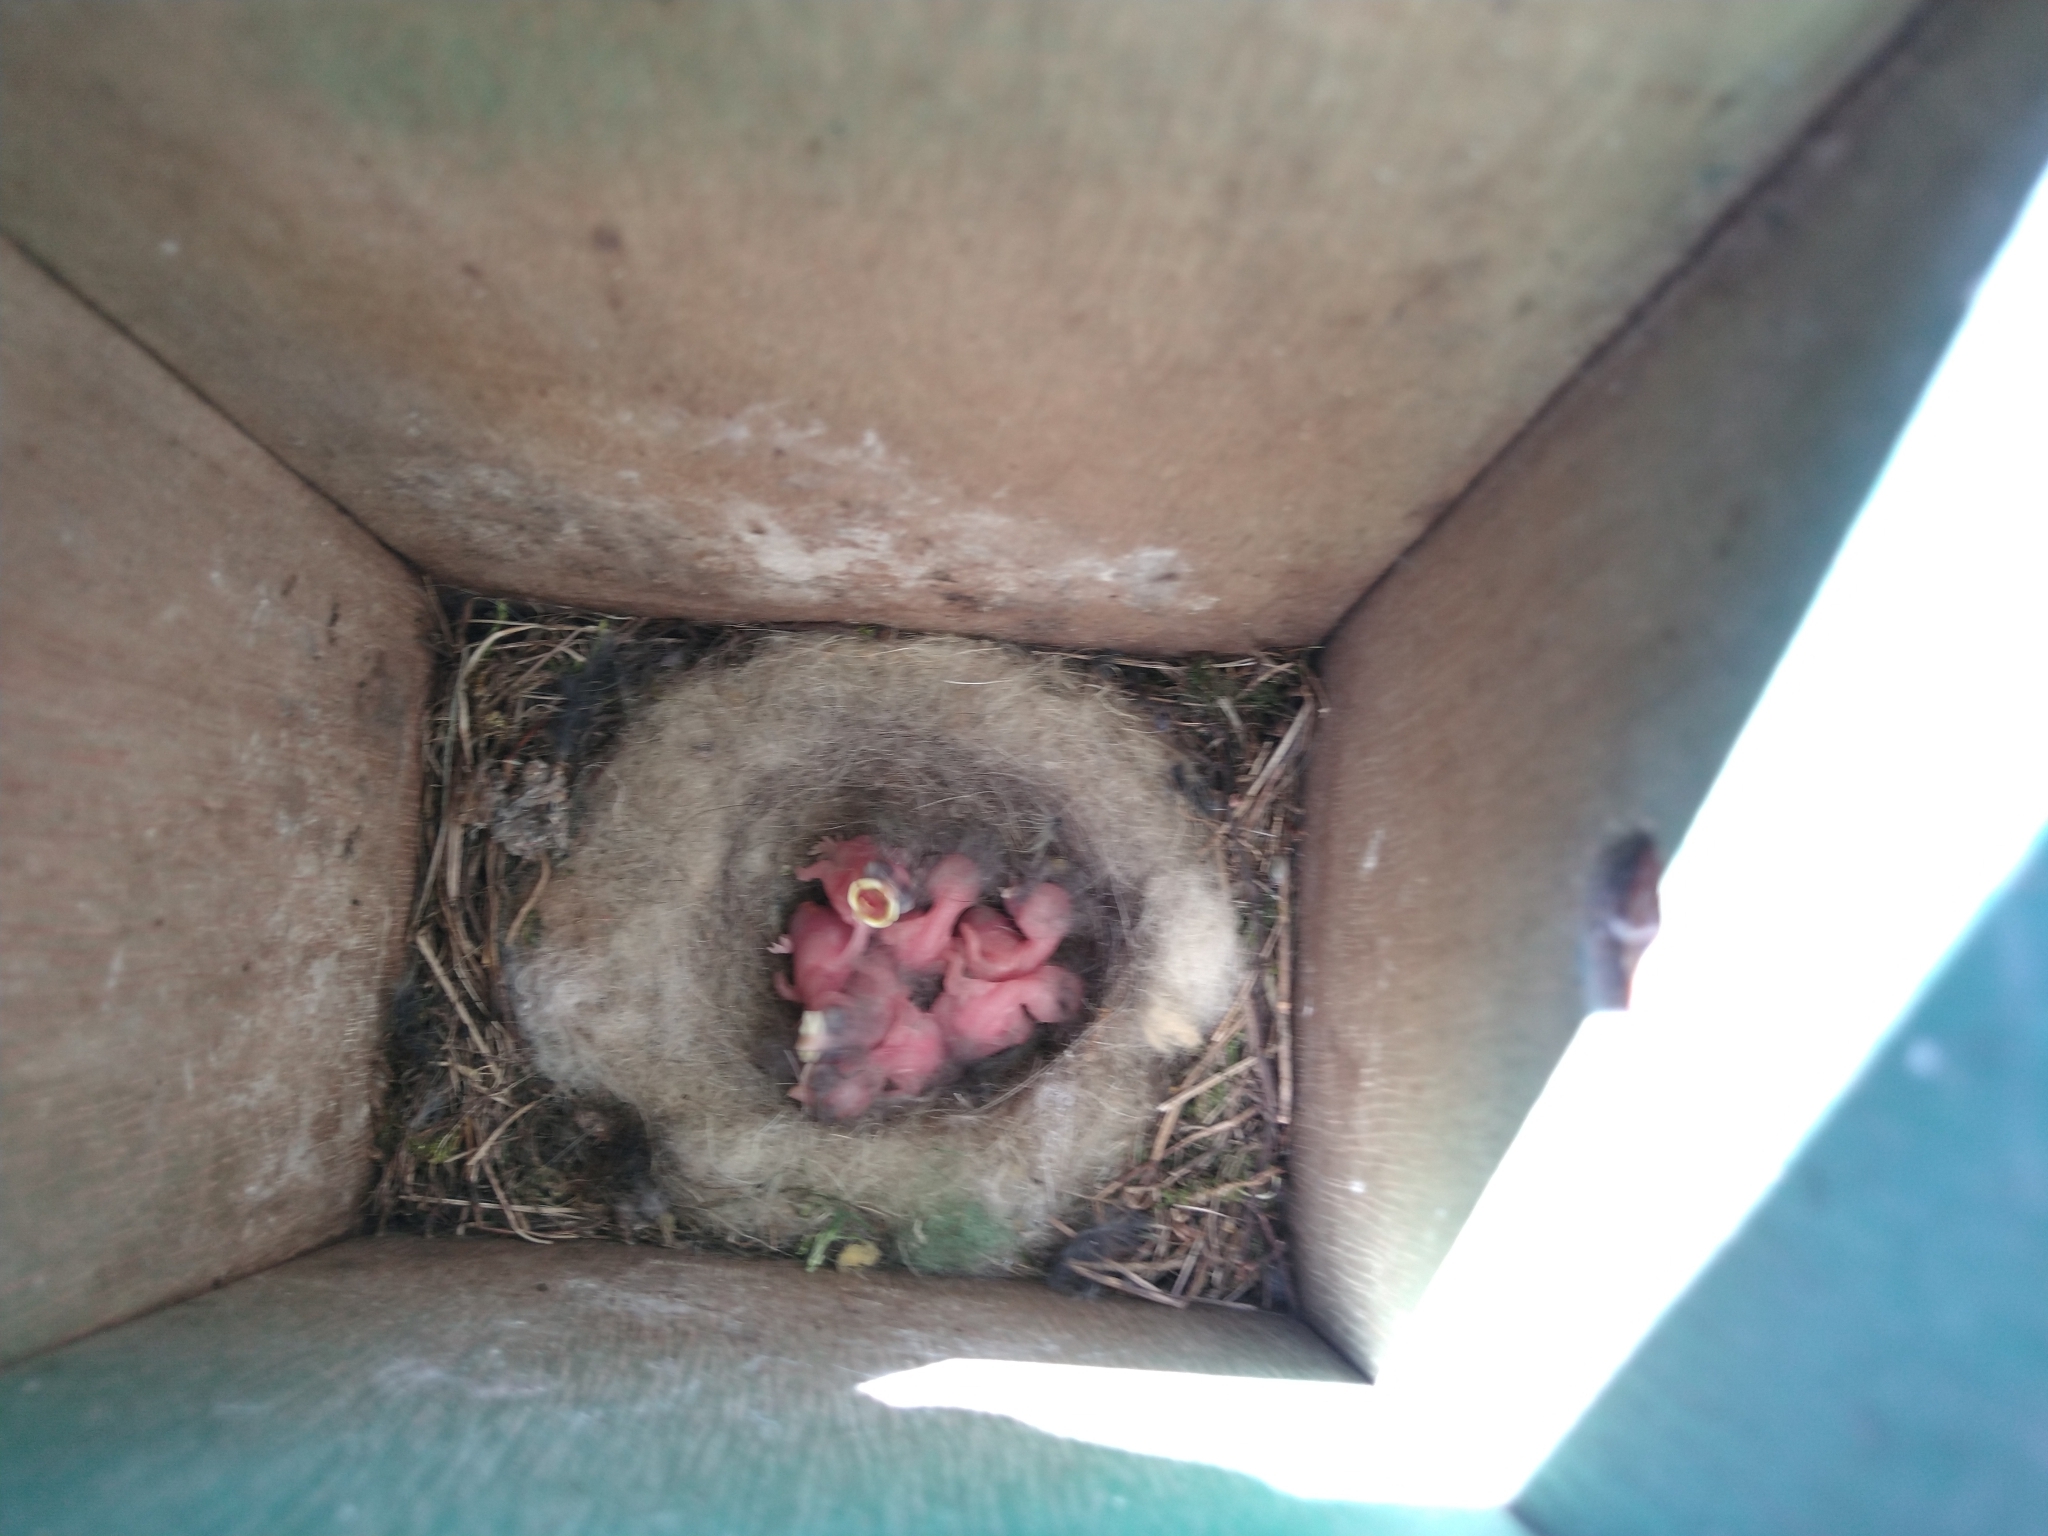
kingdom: Animalia
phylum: Chordata
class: Aves
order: Passeriformes
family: Paridae
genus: Parus
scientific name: Parus major
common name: Great tit
